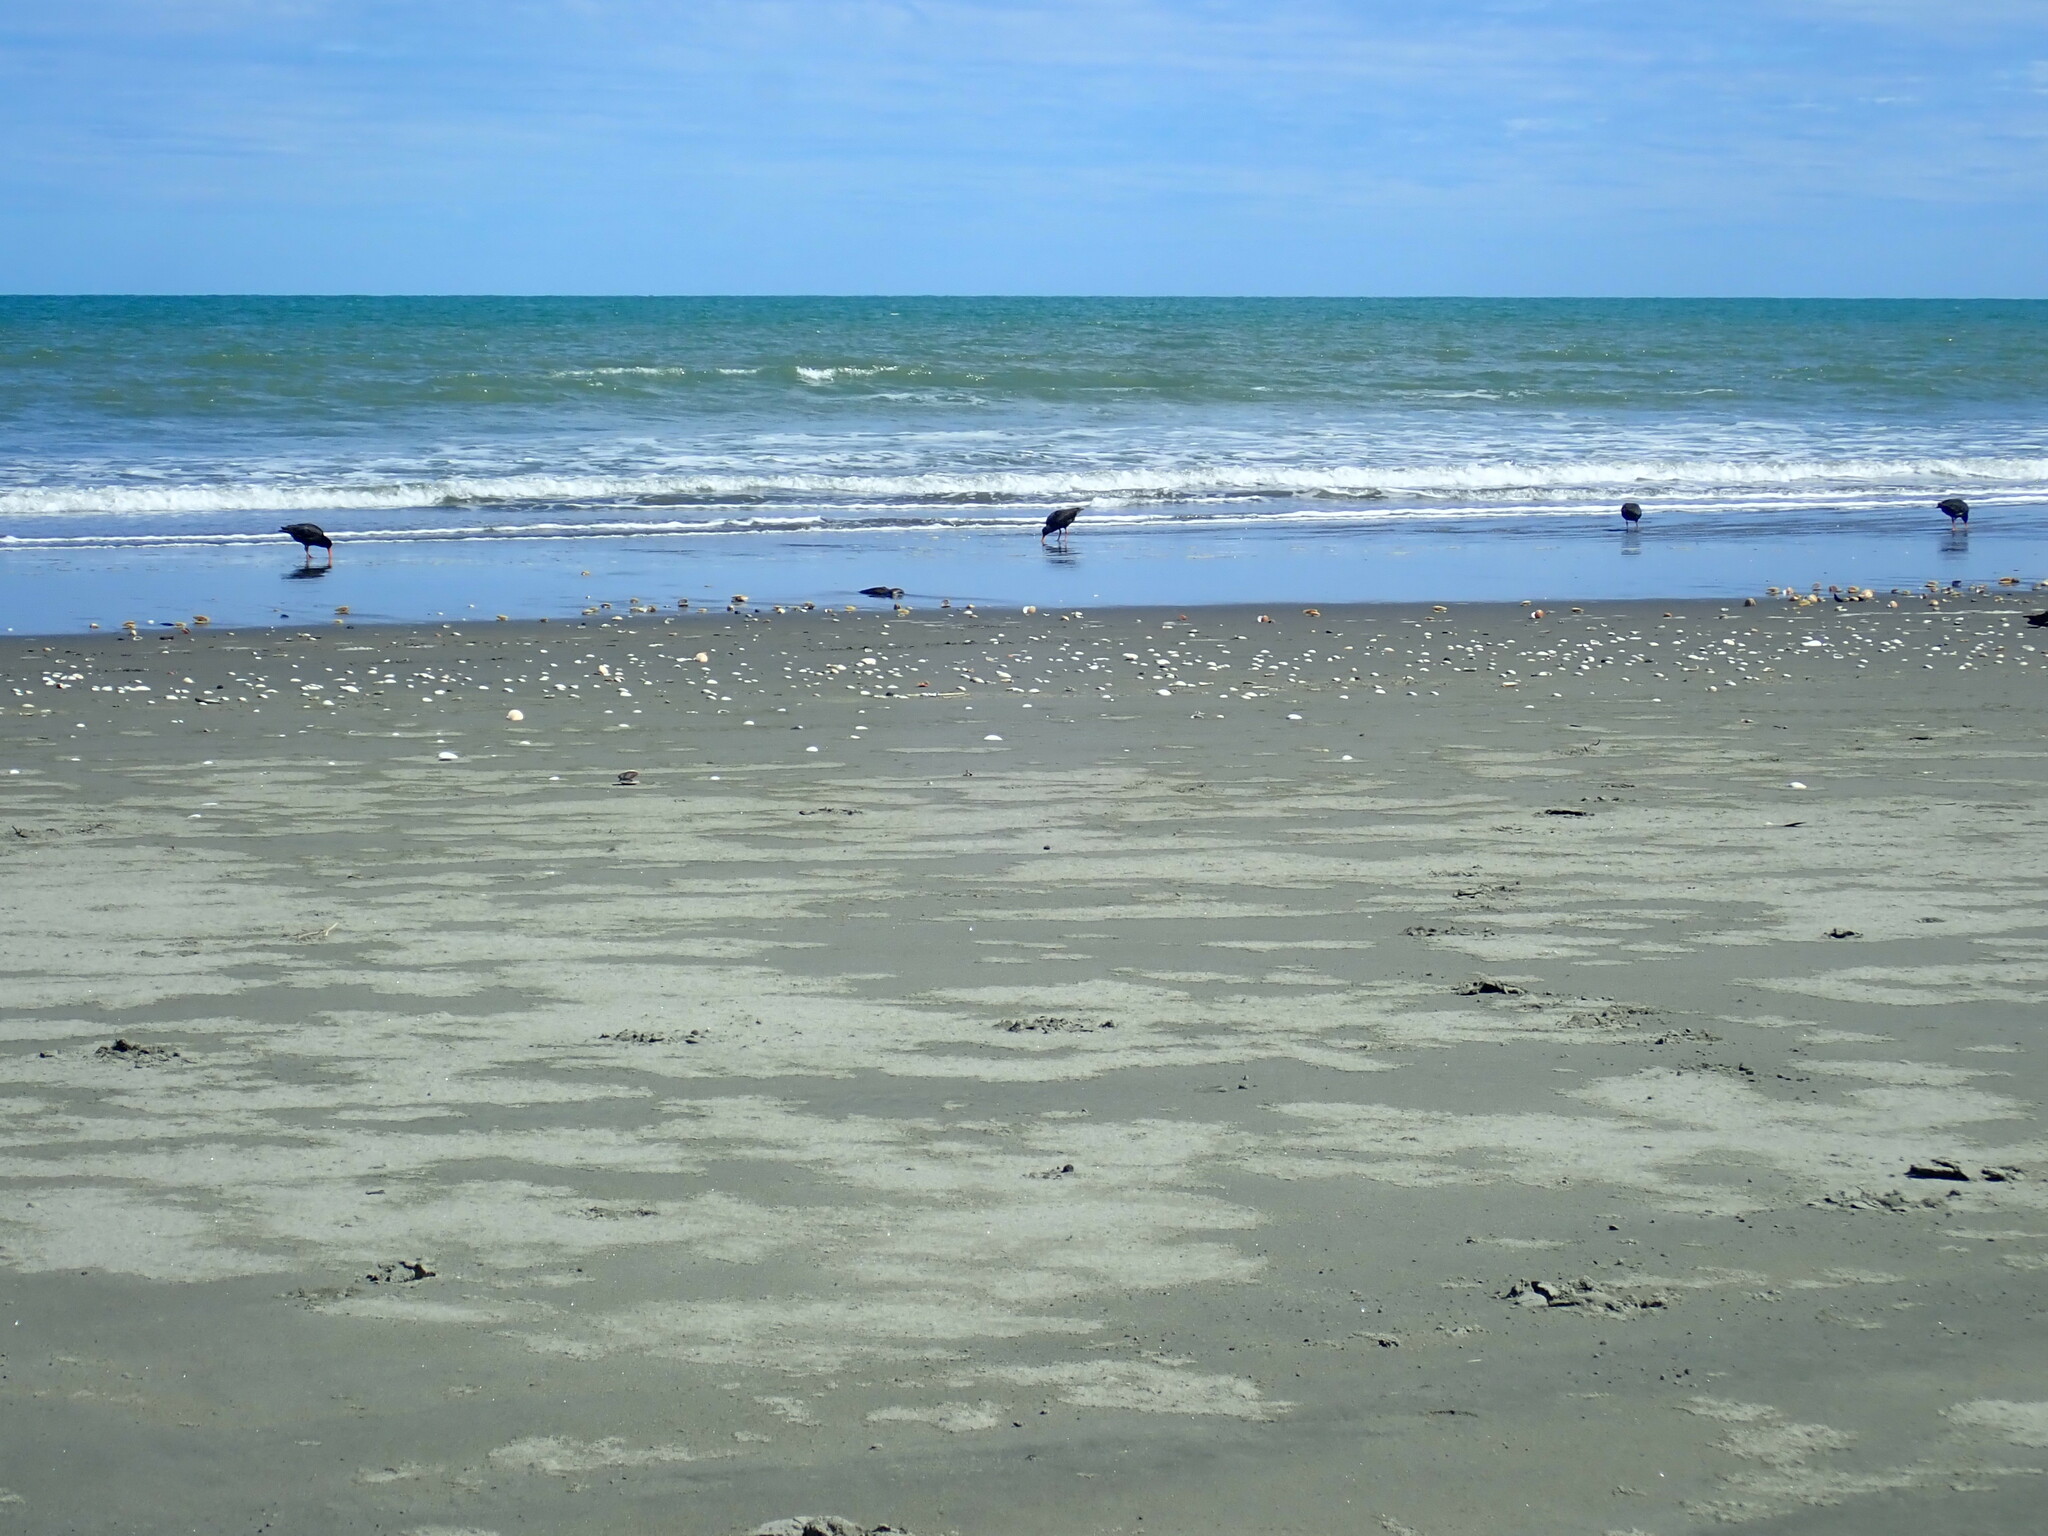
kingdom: Animalia
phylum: Chordata
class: Aves
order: Charadriiformes
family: Haematopodidae
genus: Haematopus
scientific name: Haematopus unicolor
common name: Variable oystercatcher
